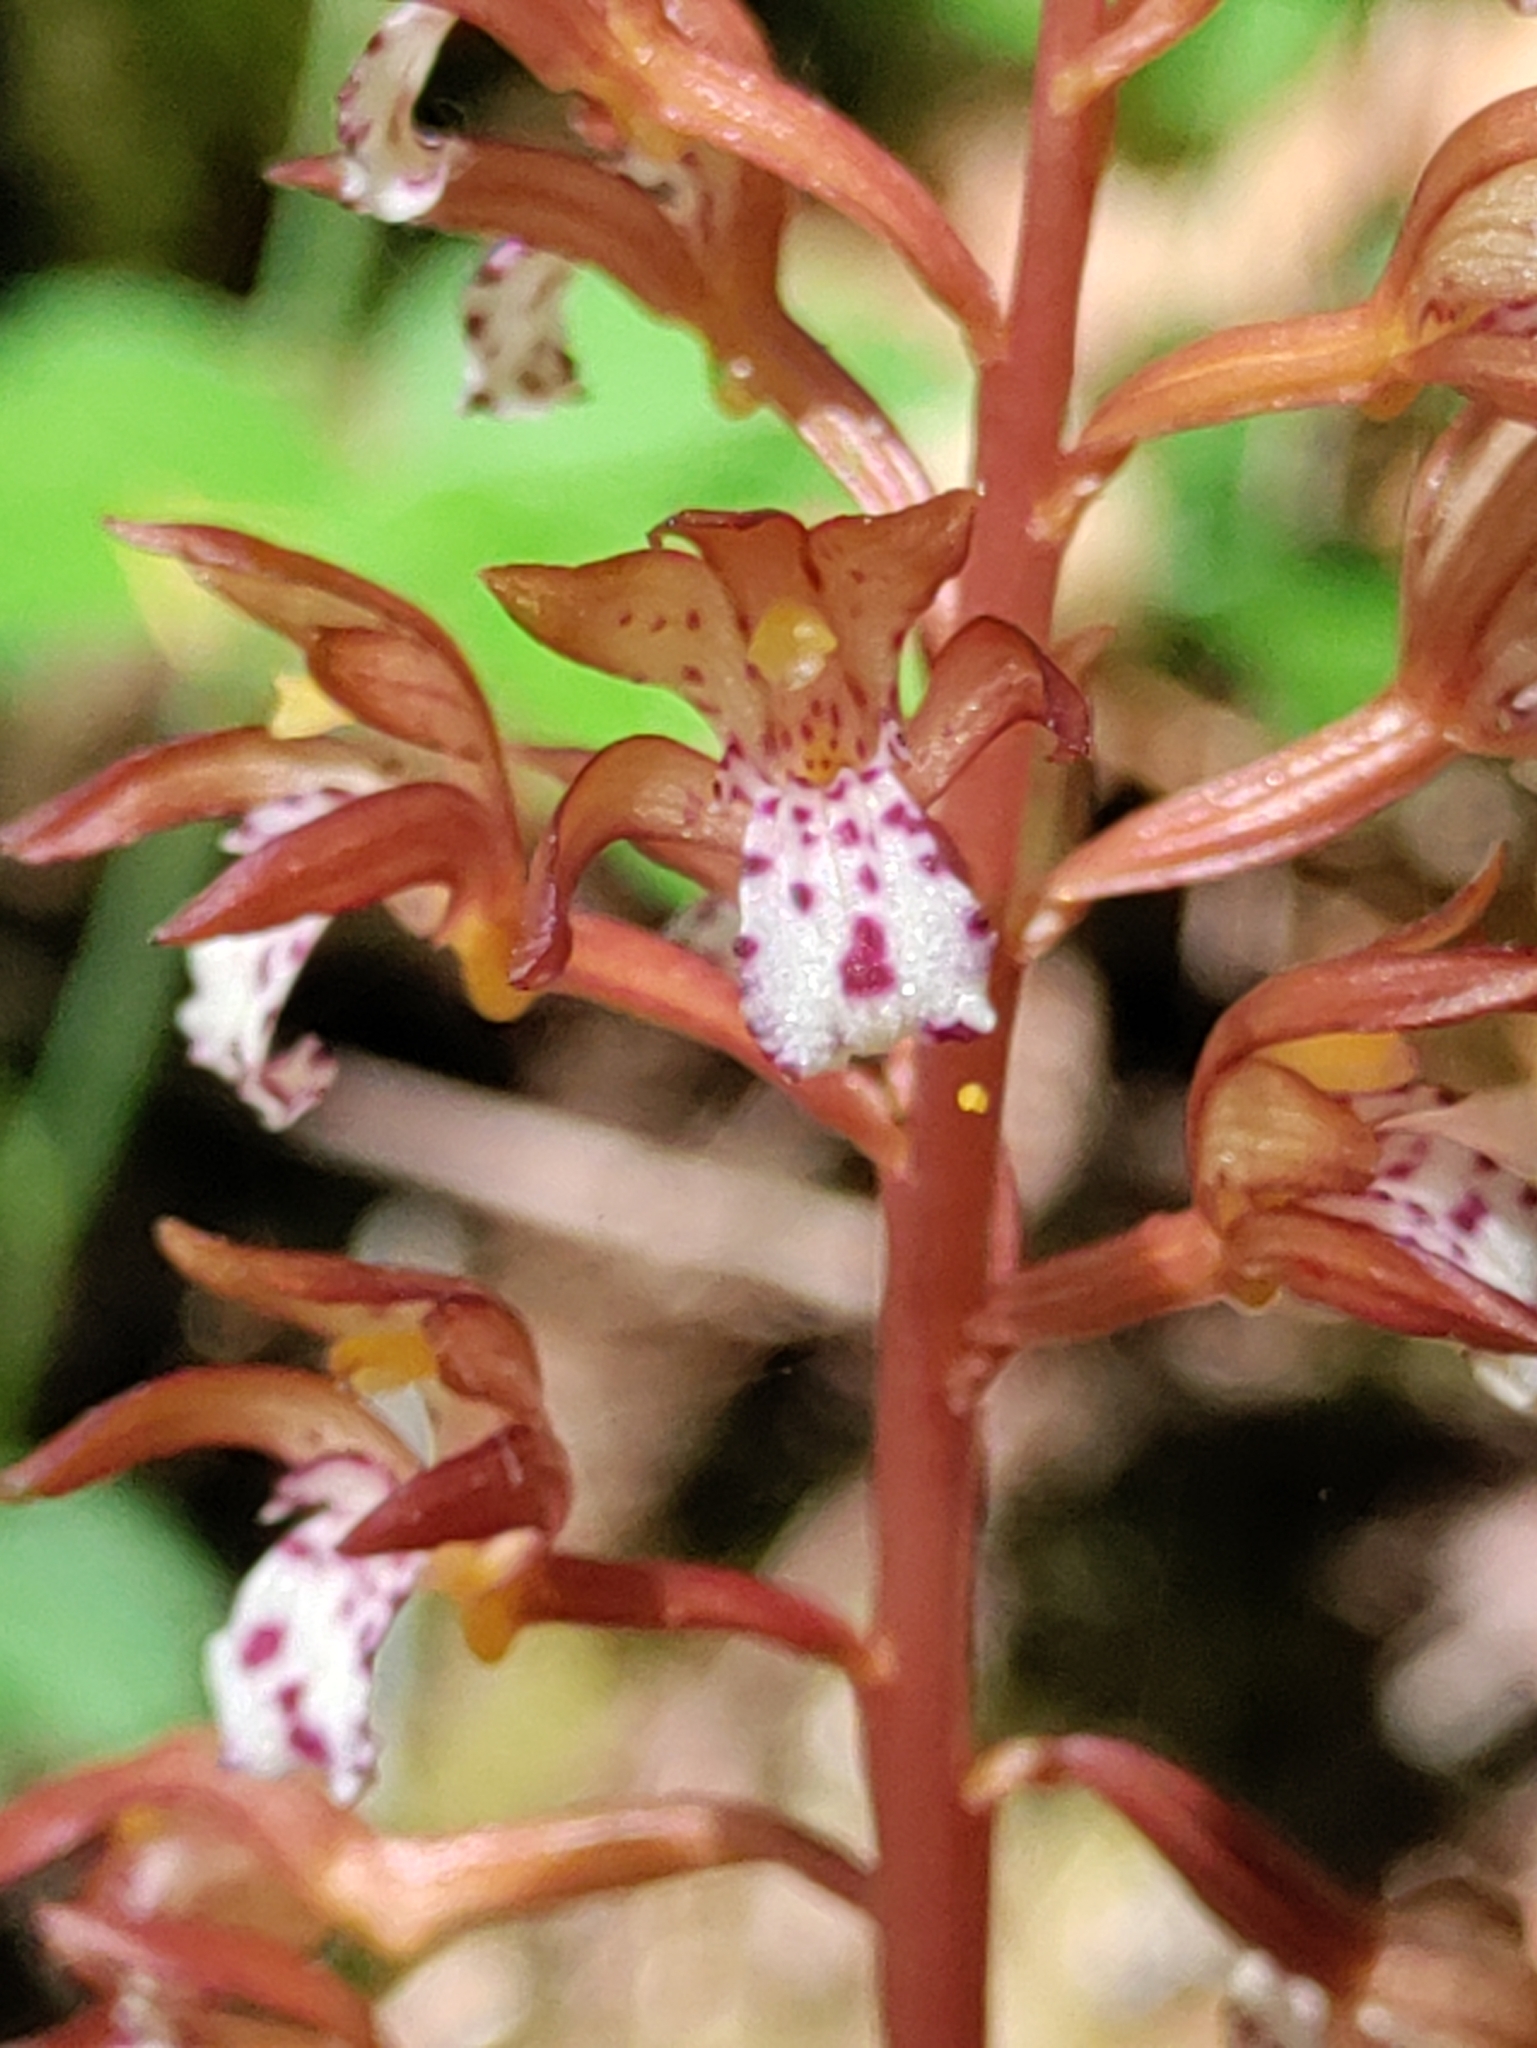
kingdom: Plantae
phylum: Tracheophyta
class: Liliopsida
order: Asparagales
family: Orchidaceae
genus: Corallorhiza
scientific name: Corallorhiza maculata
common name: Spotted coralroot
